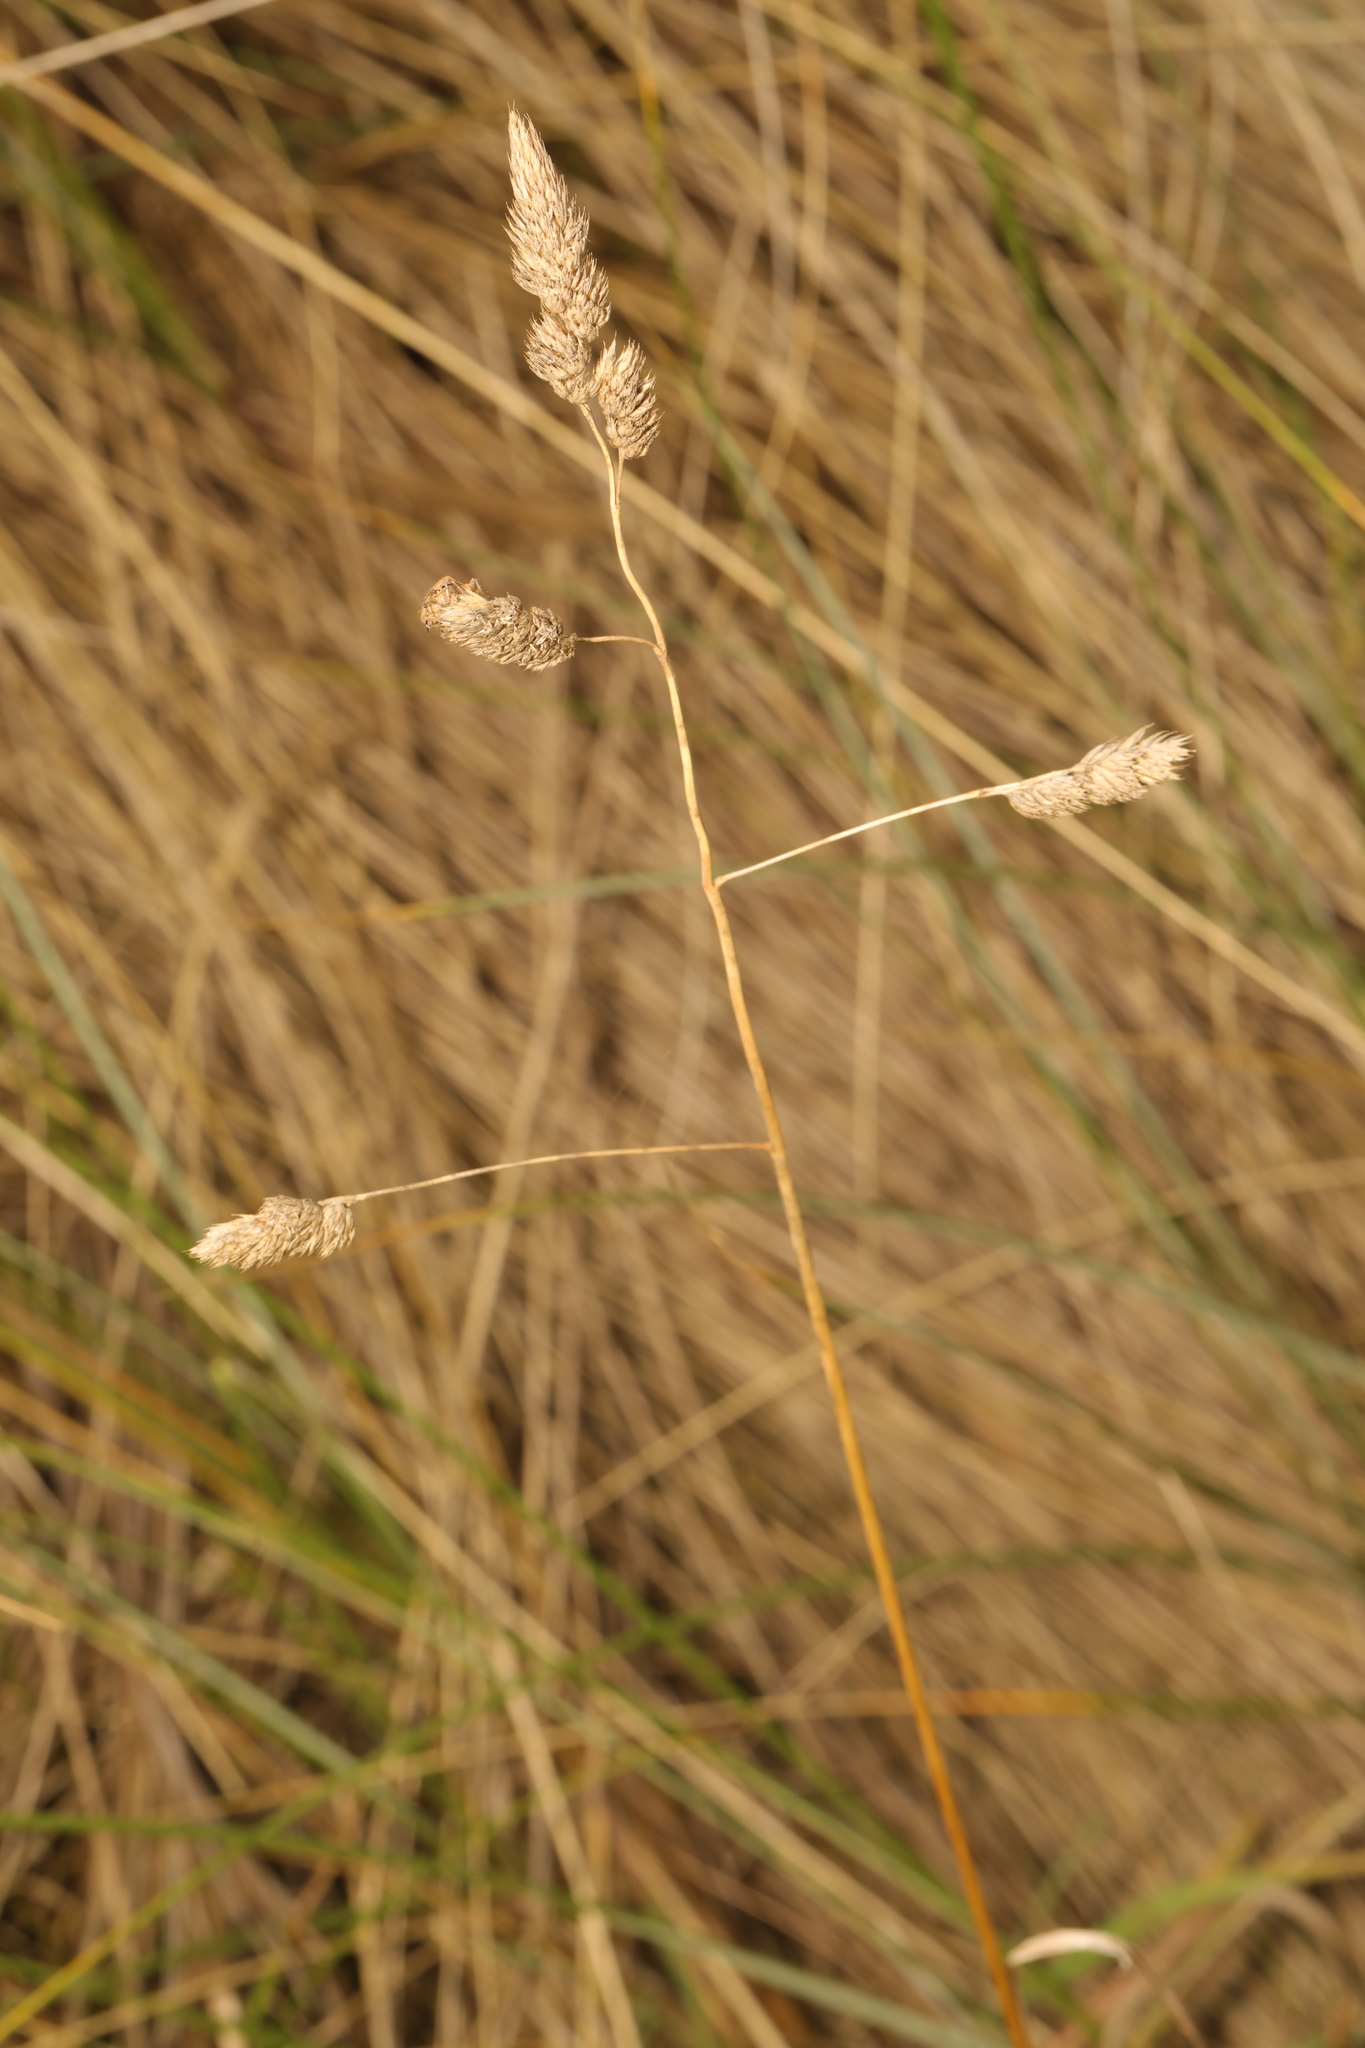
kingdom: Plantae
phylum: Tracheophyta
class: Liliopsida
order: Poales
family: Poaceae
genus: Dactylis
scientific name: Dactylis glomerata
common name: Orchardgrass
